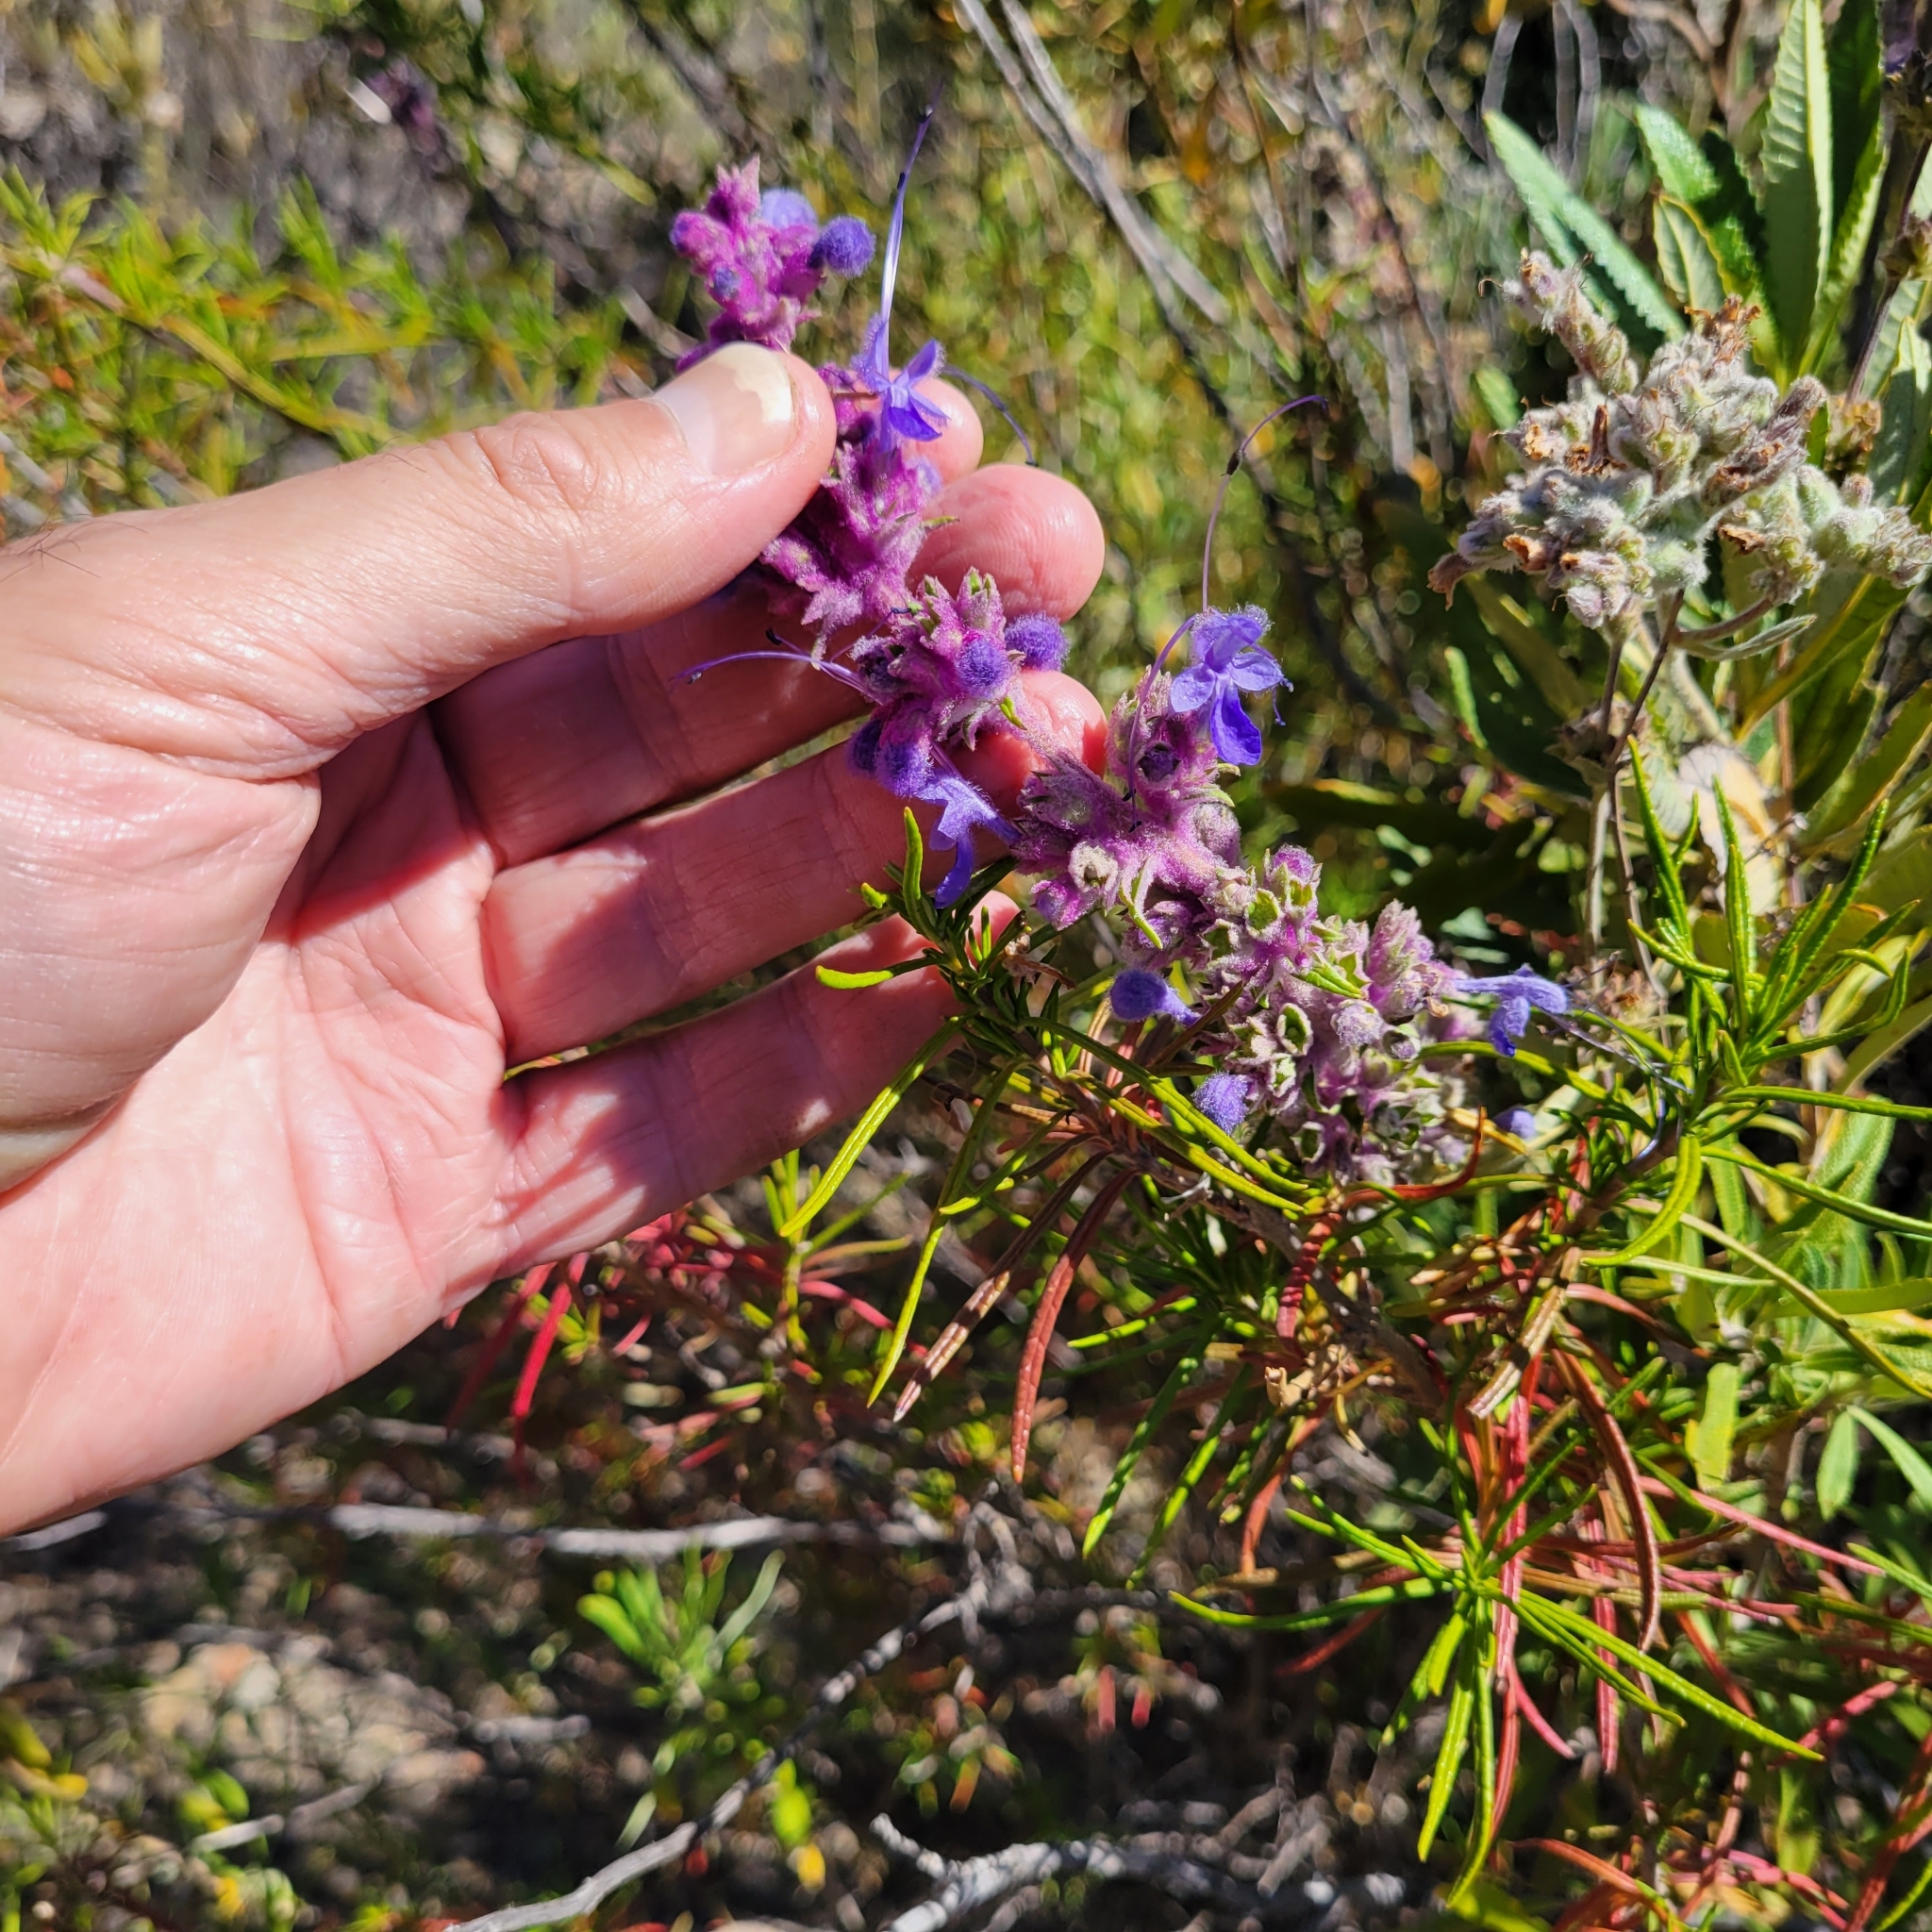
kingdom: Plantae
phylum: Tracheophyta
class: Magnoliopsida
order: Lamiales
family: Lamiaceae
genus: Trichostema
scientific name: Trichostema lanatum
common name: Woolly bluecurls
